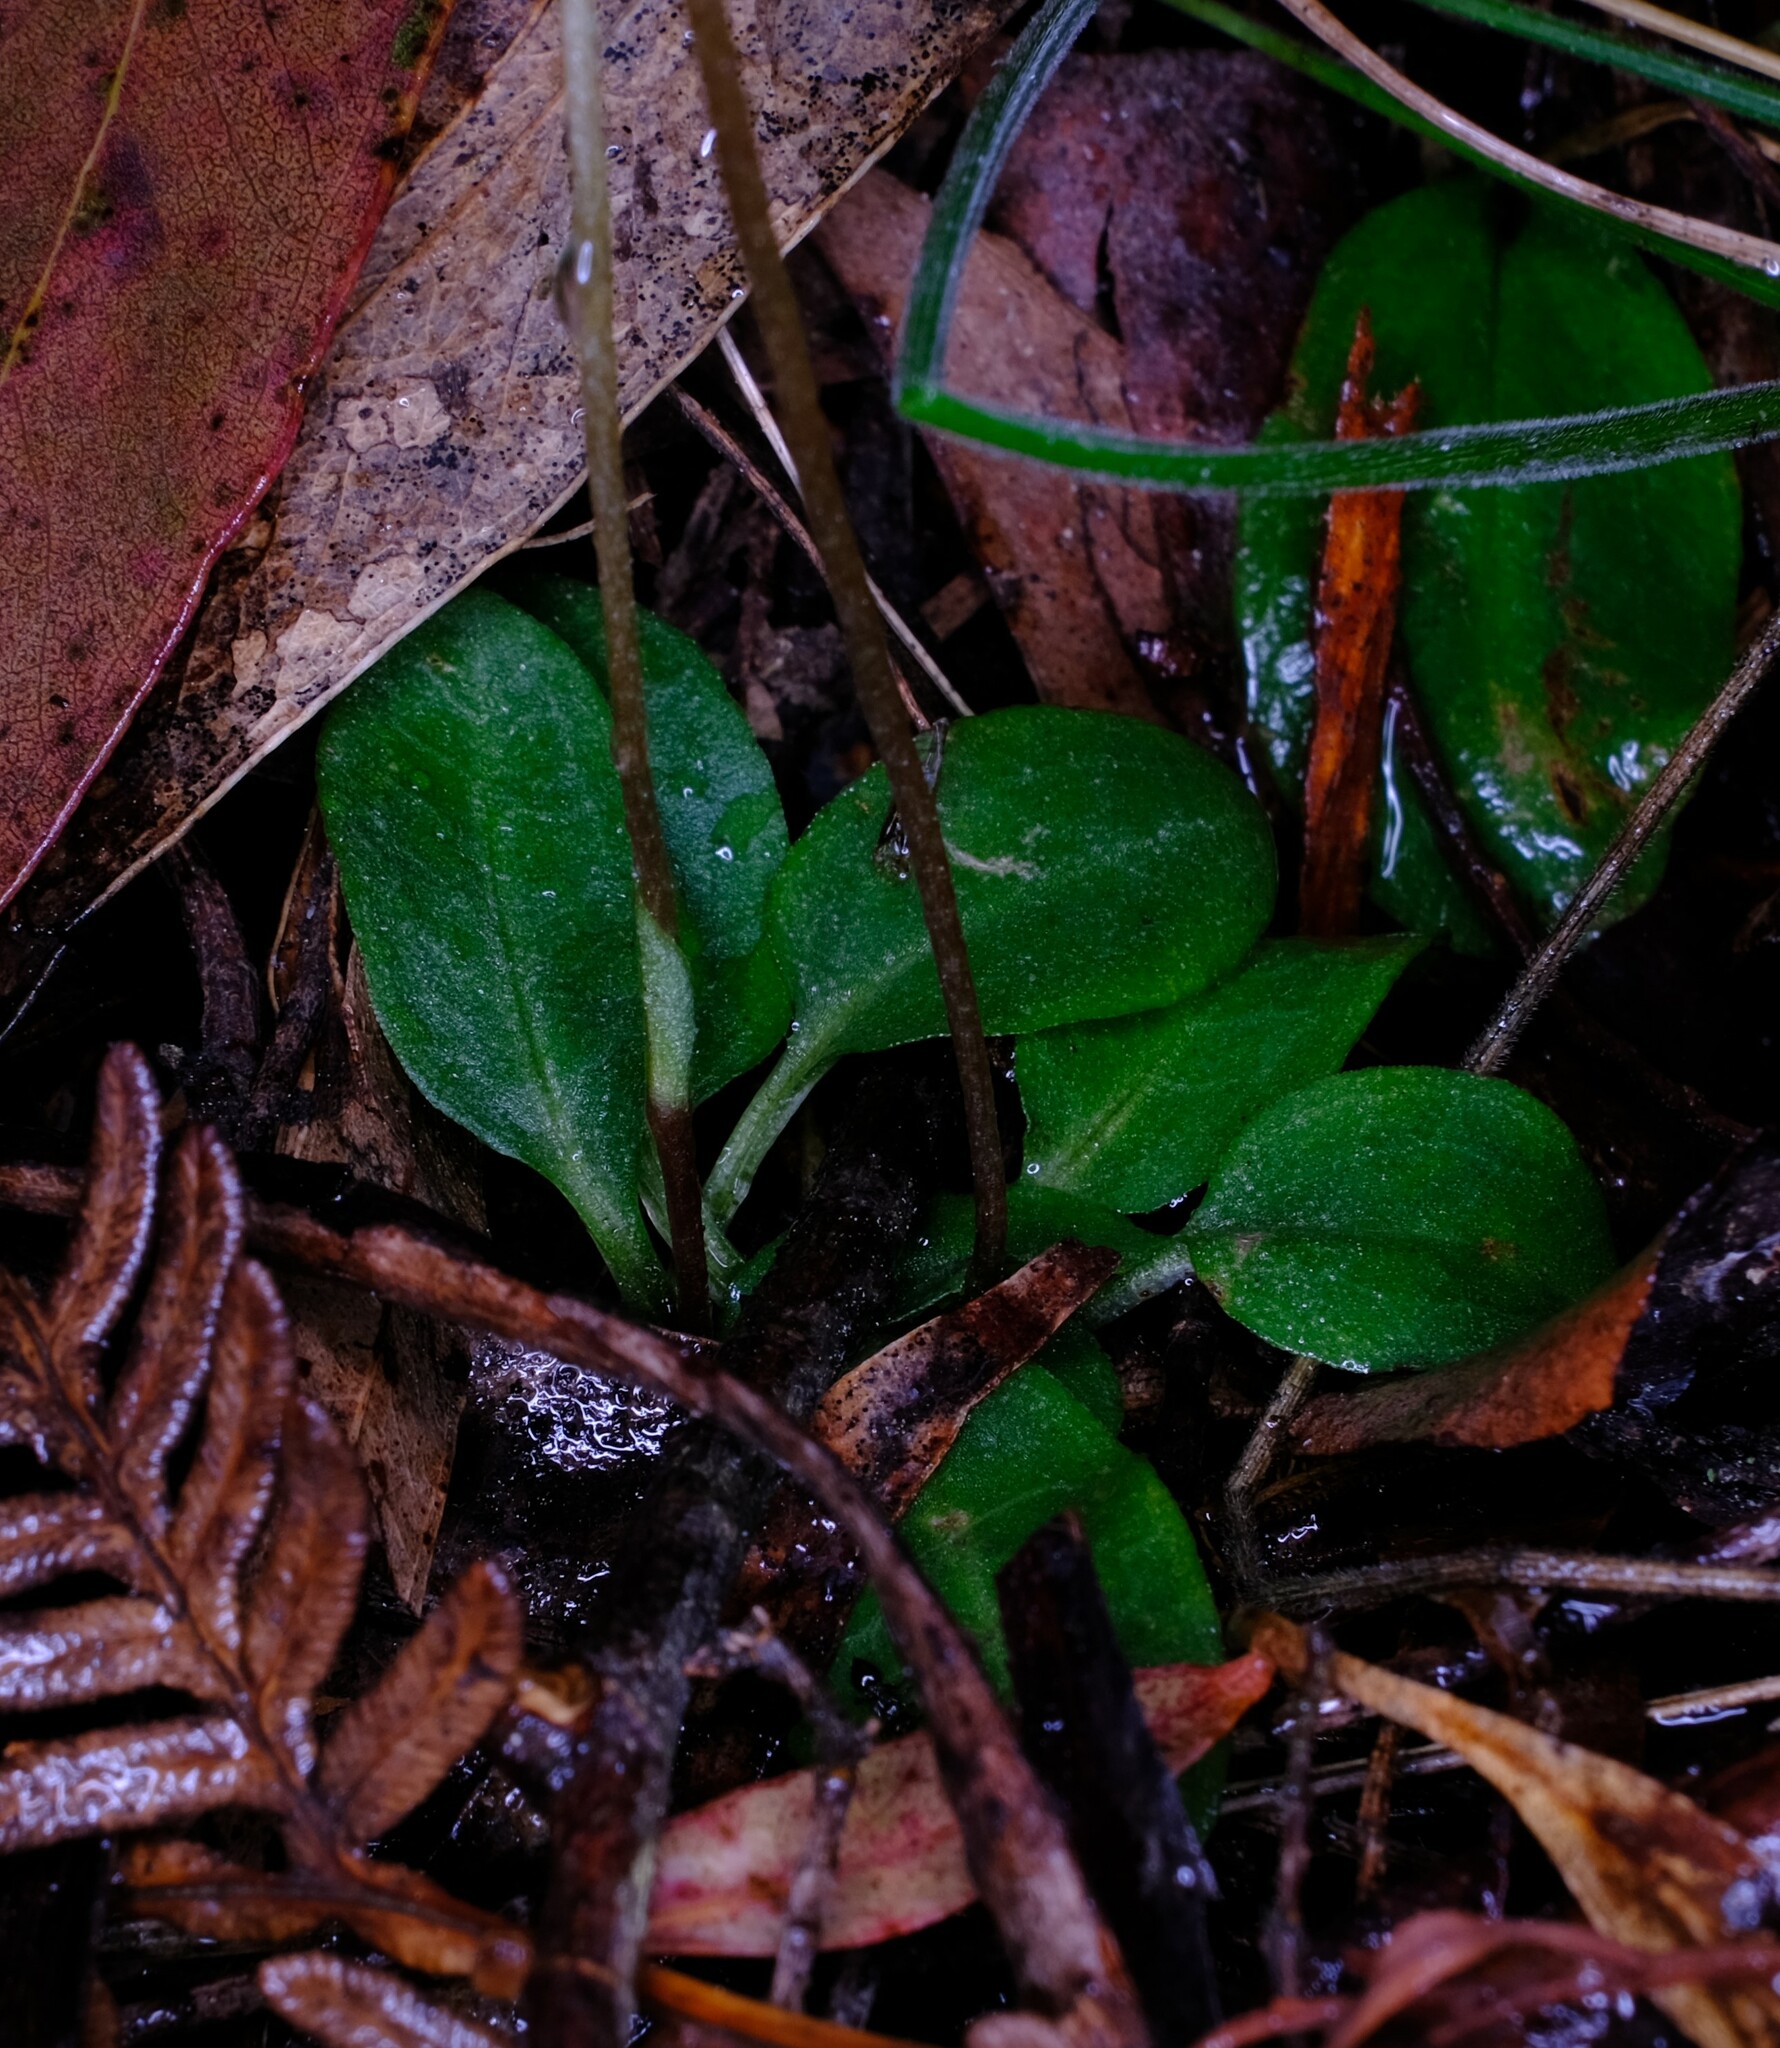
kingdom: Plantae
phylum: Tracheophyta
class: Liliopsida
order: Asparagales
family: Orchidaceae
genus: Pterostylis
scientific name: Pterostylis concinna
